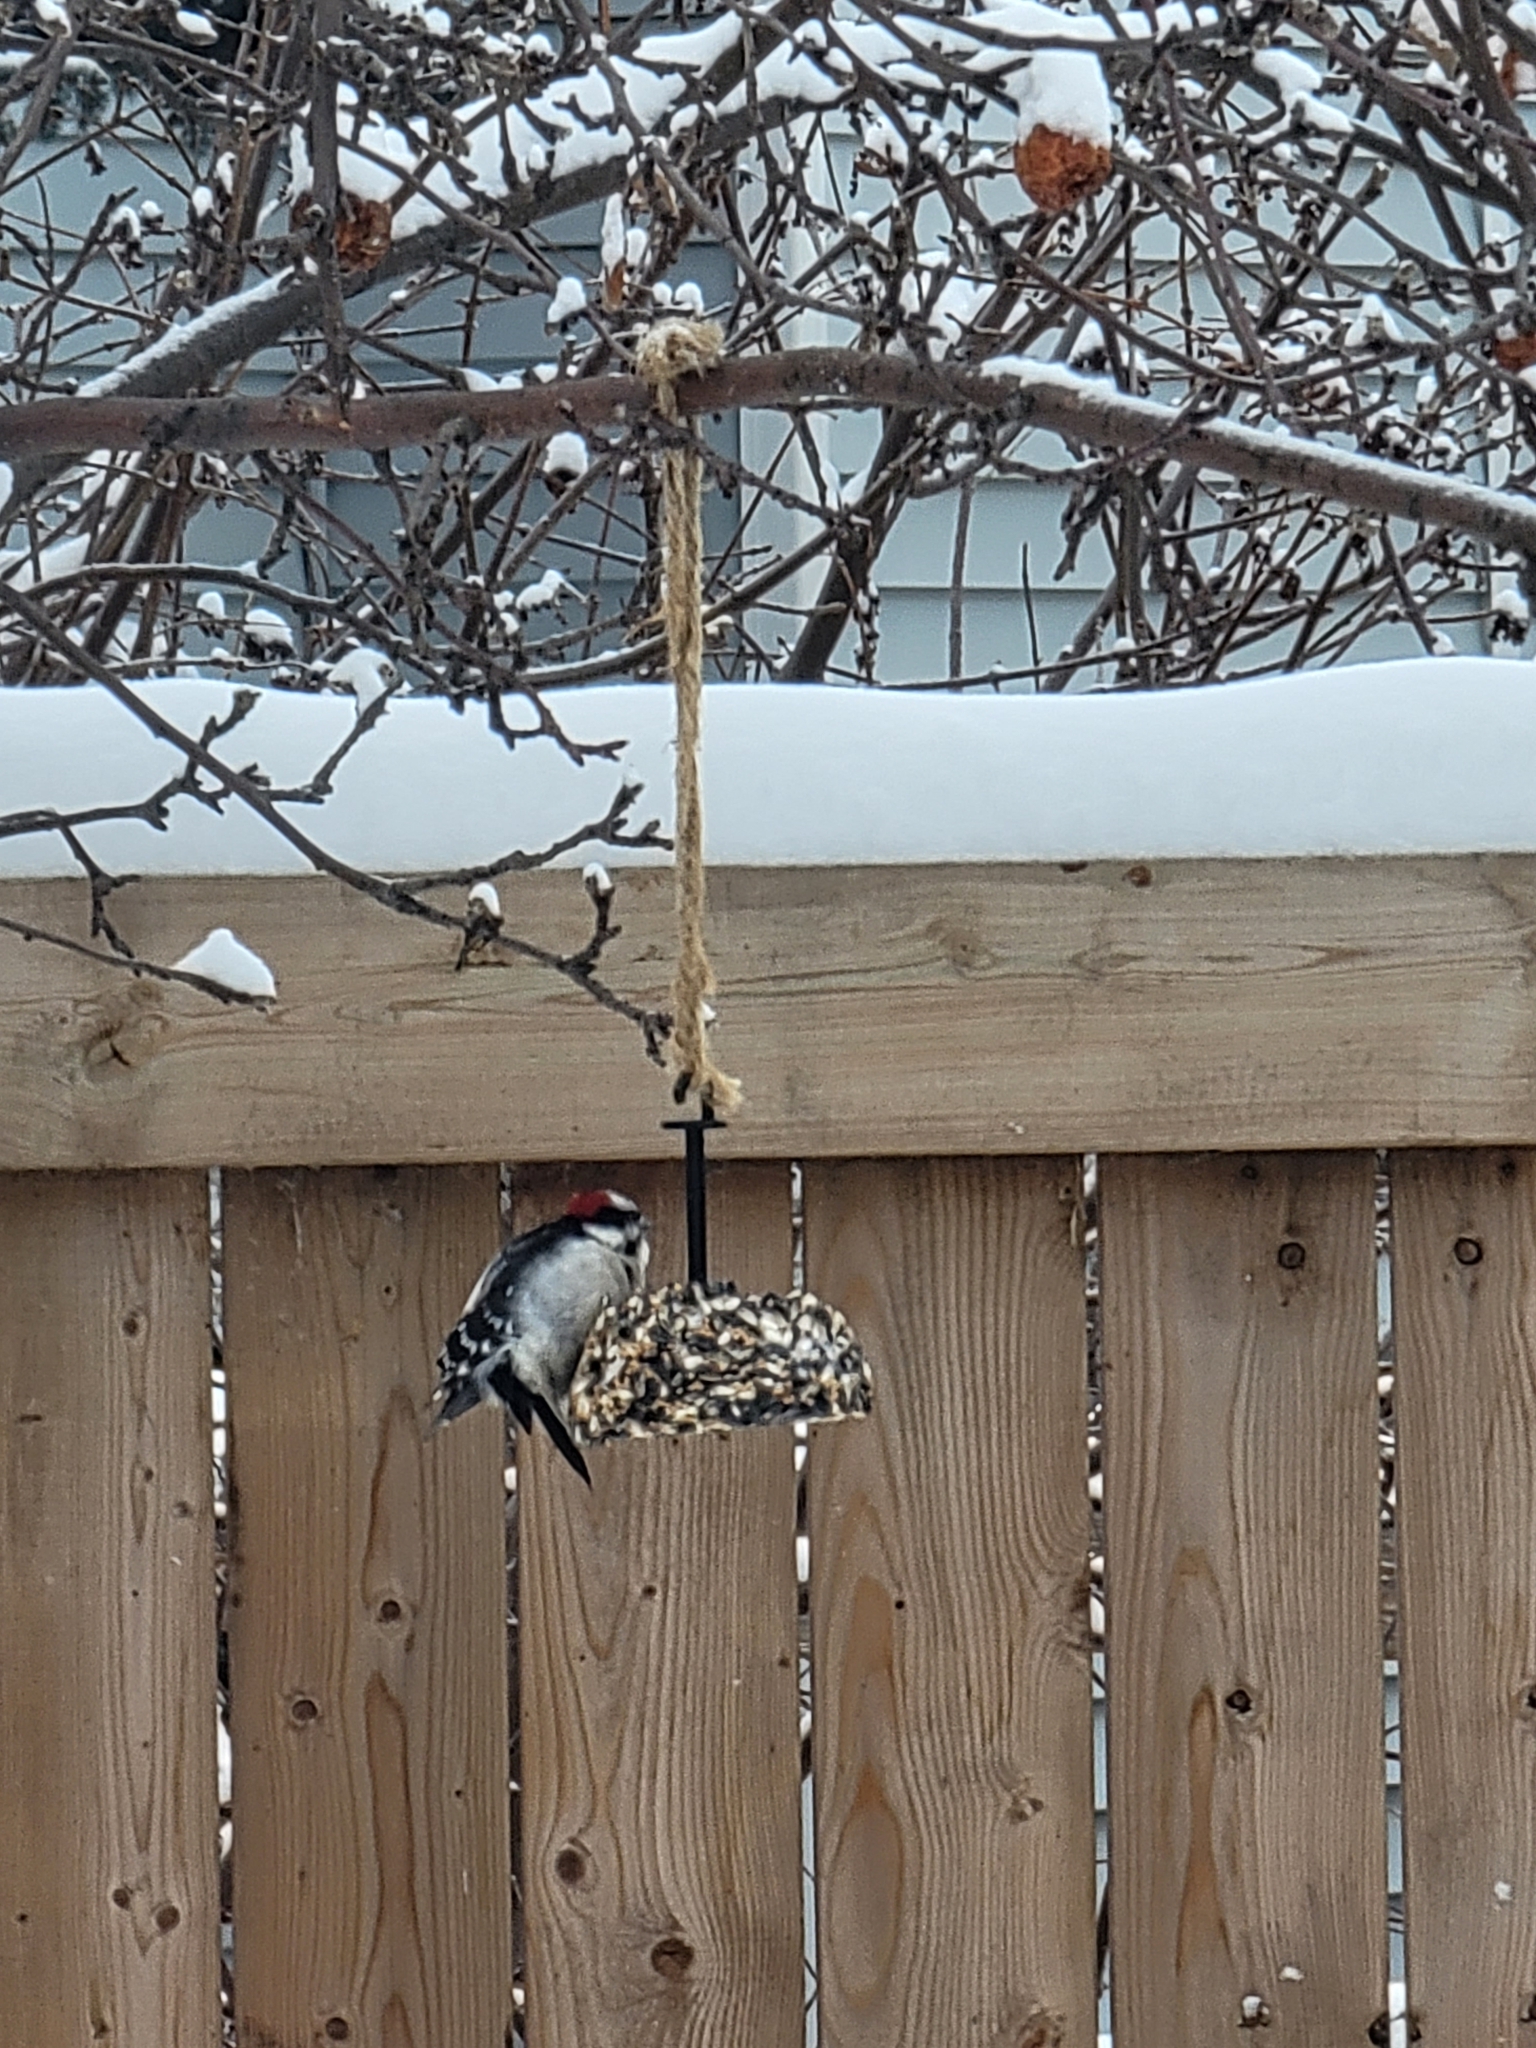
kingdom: Animalia
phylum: Chordata
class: Aves
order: Piciformes
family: Picidae
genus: Dryobates
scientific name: Dryobates pubescens
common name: Downy woodpecker
